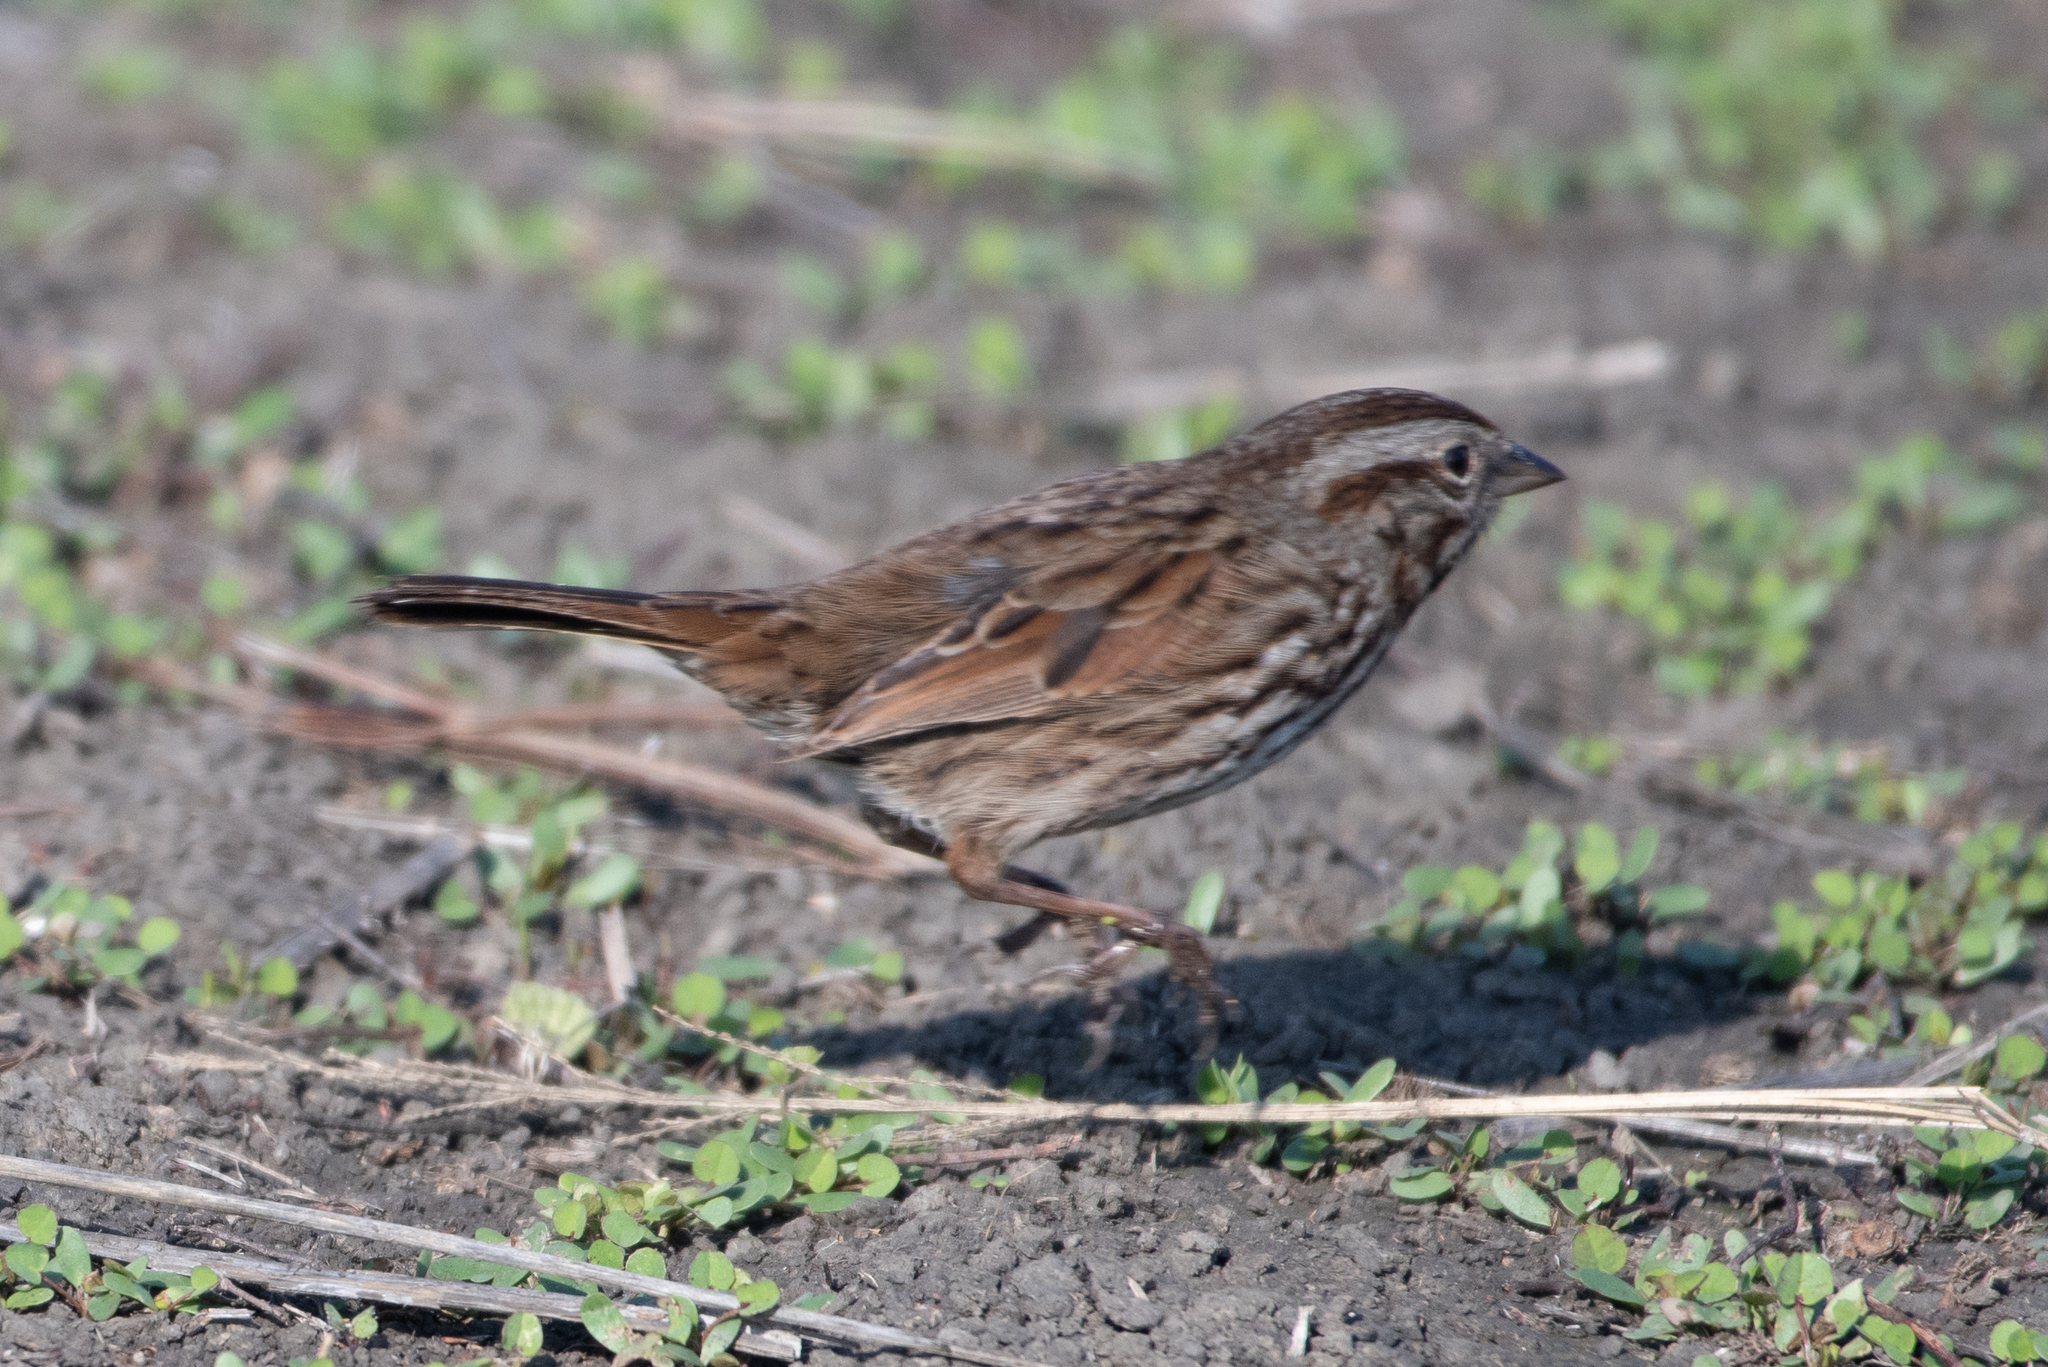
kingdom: Animalia
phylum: Chordata
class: Aves
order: Passeriformes
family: Passerellidae
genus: Melospiza
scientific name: Melospiza melodia
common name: Song sparrow
